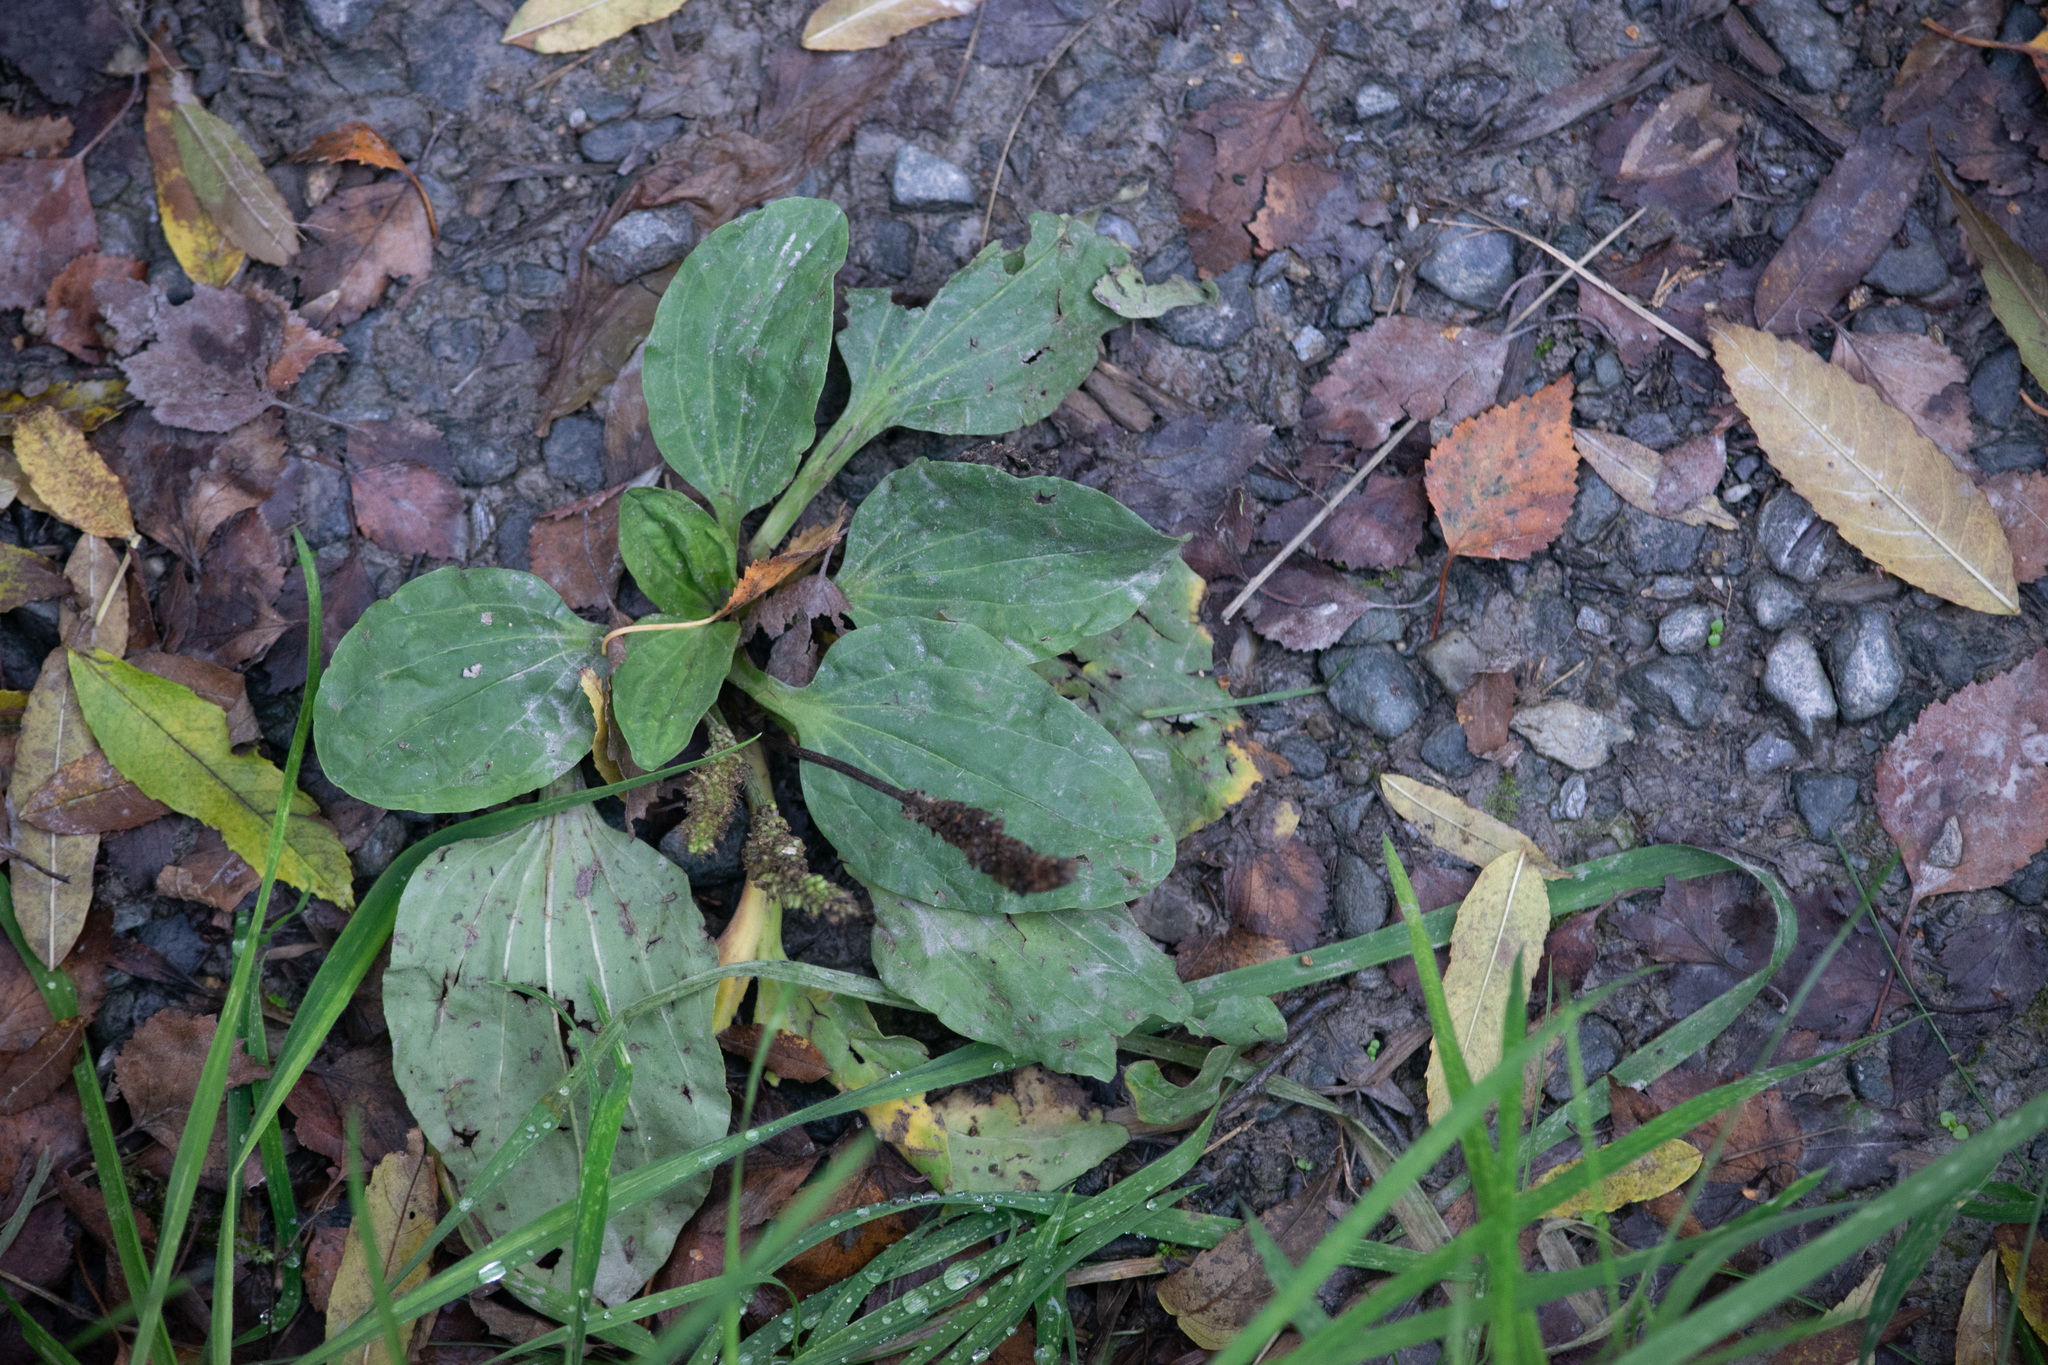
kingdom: Plantae
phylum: Tracheophyta
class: Magnoliopsida
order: Lamiales
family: Plantaginaceae
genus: Plantago
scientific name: Plantago major
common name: Common plantain
